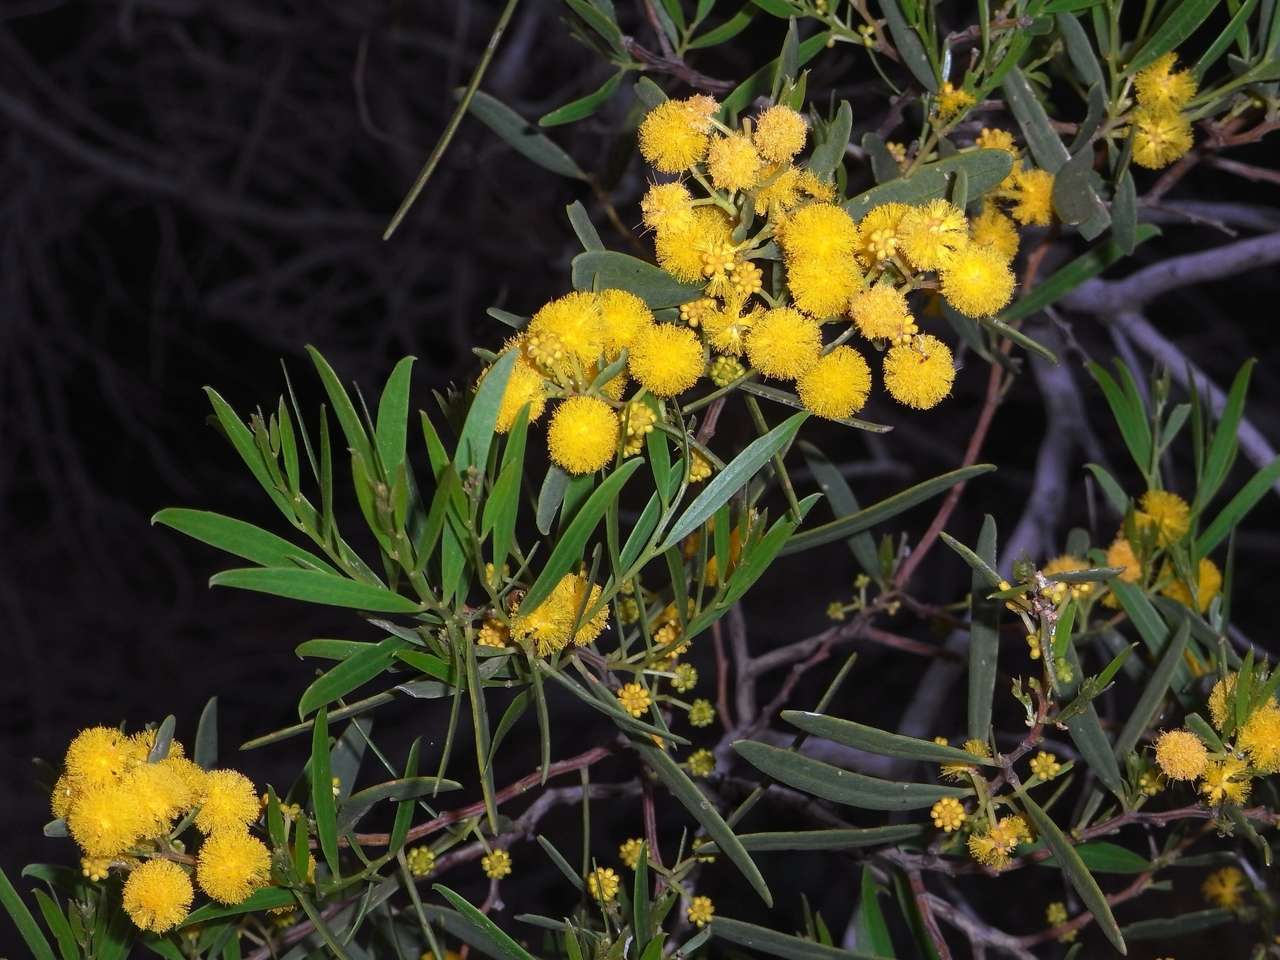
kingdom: Plantae
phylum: Tracheophyta
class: Magnoliopsida
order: Fabales
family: Fabaceae
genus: Acacia
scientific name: Acacia ligulata
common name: Dune wattle
